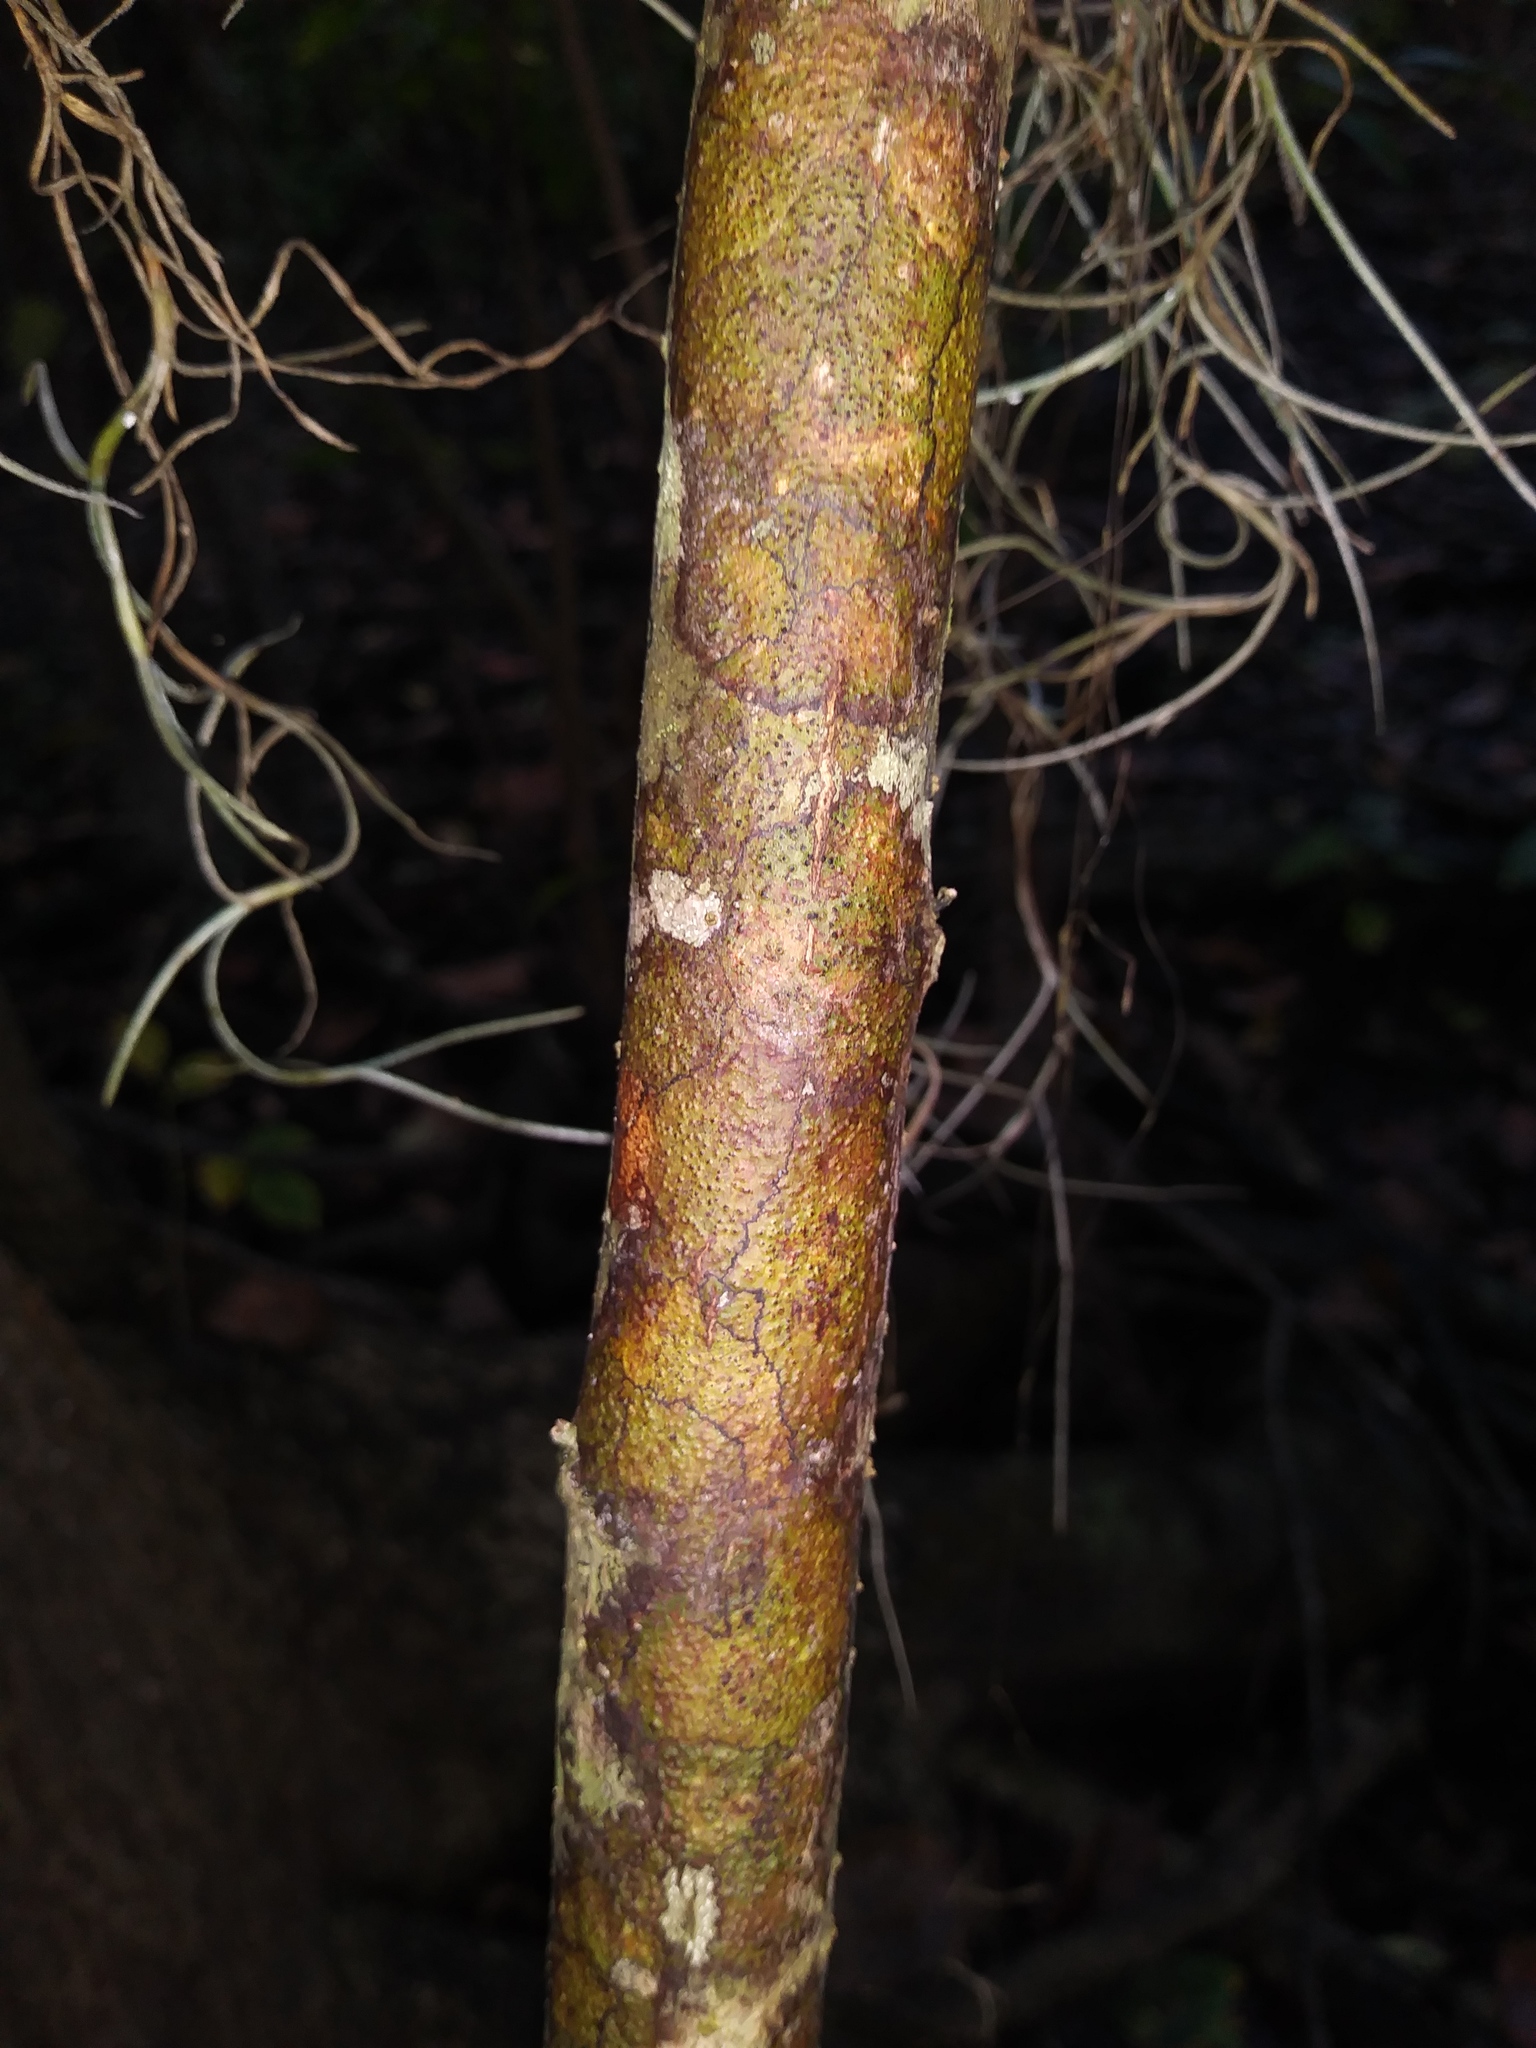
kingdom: Plantae
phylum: Tracheophyta
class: Magnoliopsida
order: Sapindales
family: Anacardiaceae
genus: Schinus
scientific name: Schinus terebinthifolia
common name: Brazilian peppertree
